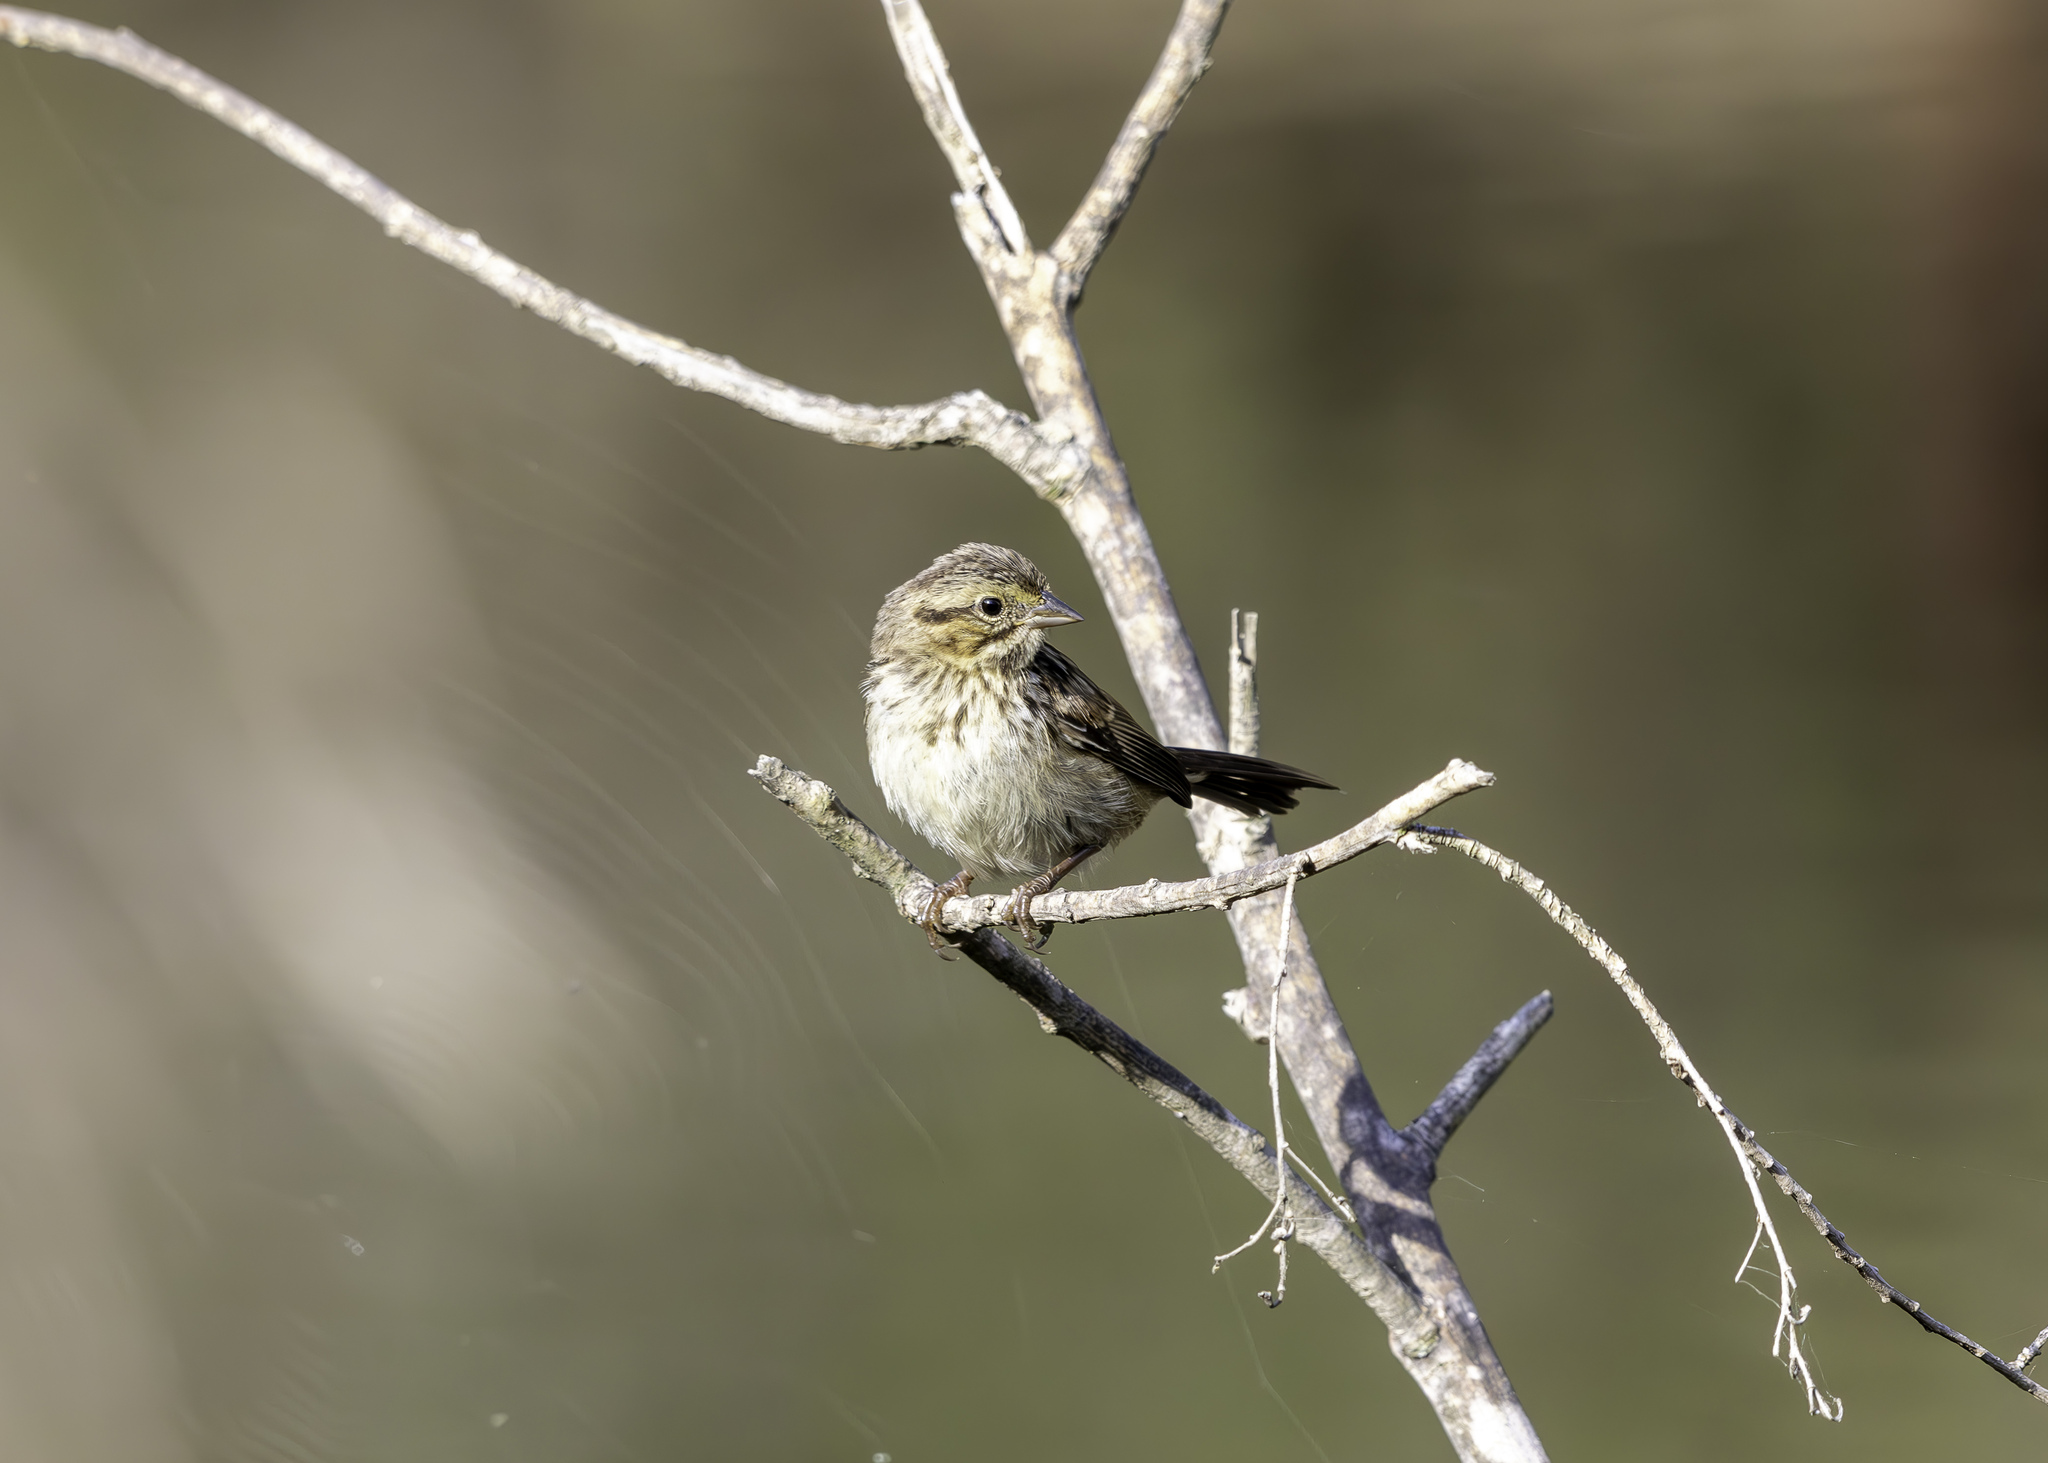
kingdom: Animalia
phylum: Chordata
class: Aves
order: Passeriformes
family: Passerellidae
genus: Melospiza
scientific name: Melospiza melodia
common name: Song sparrow
